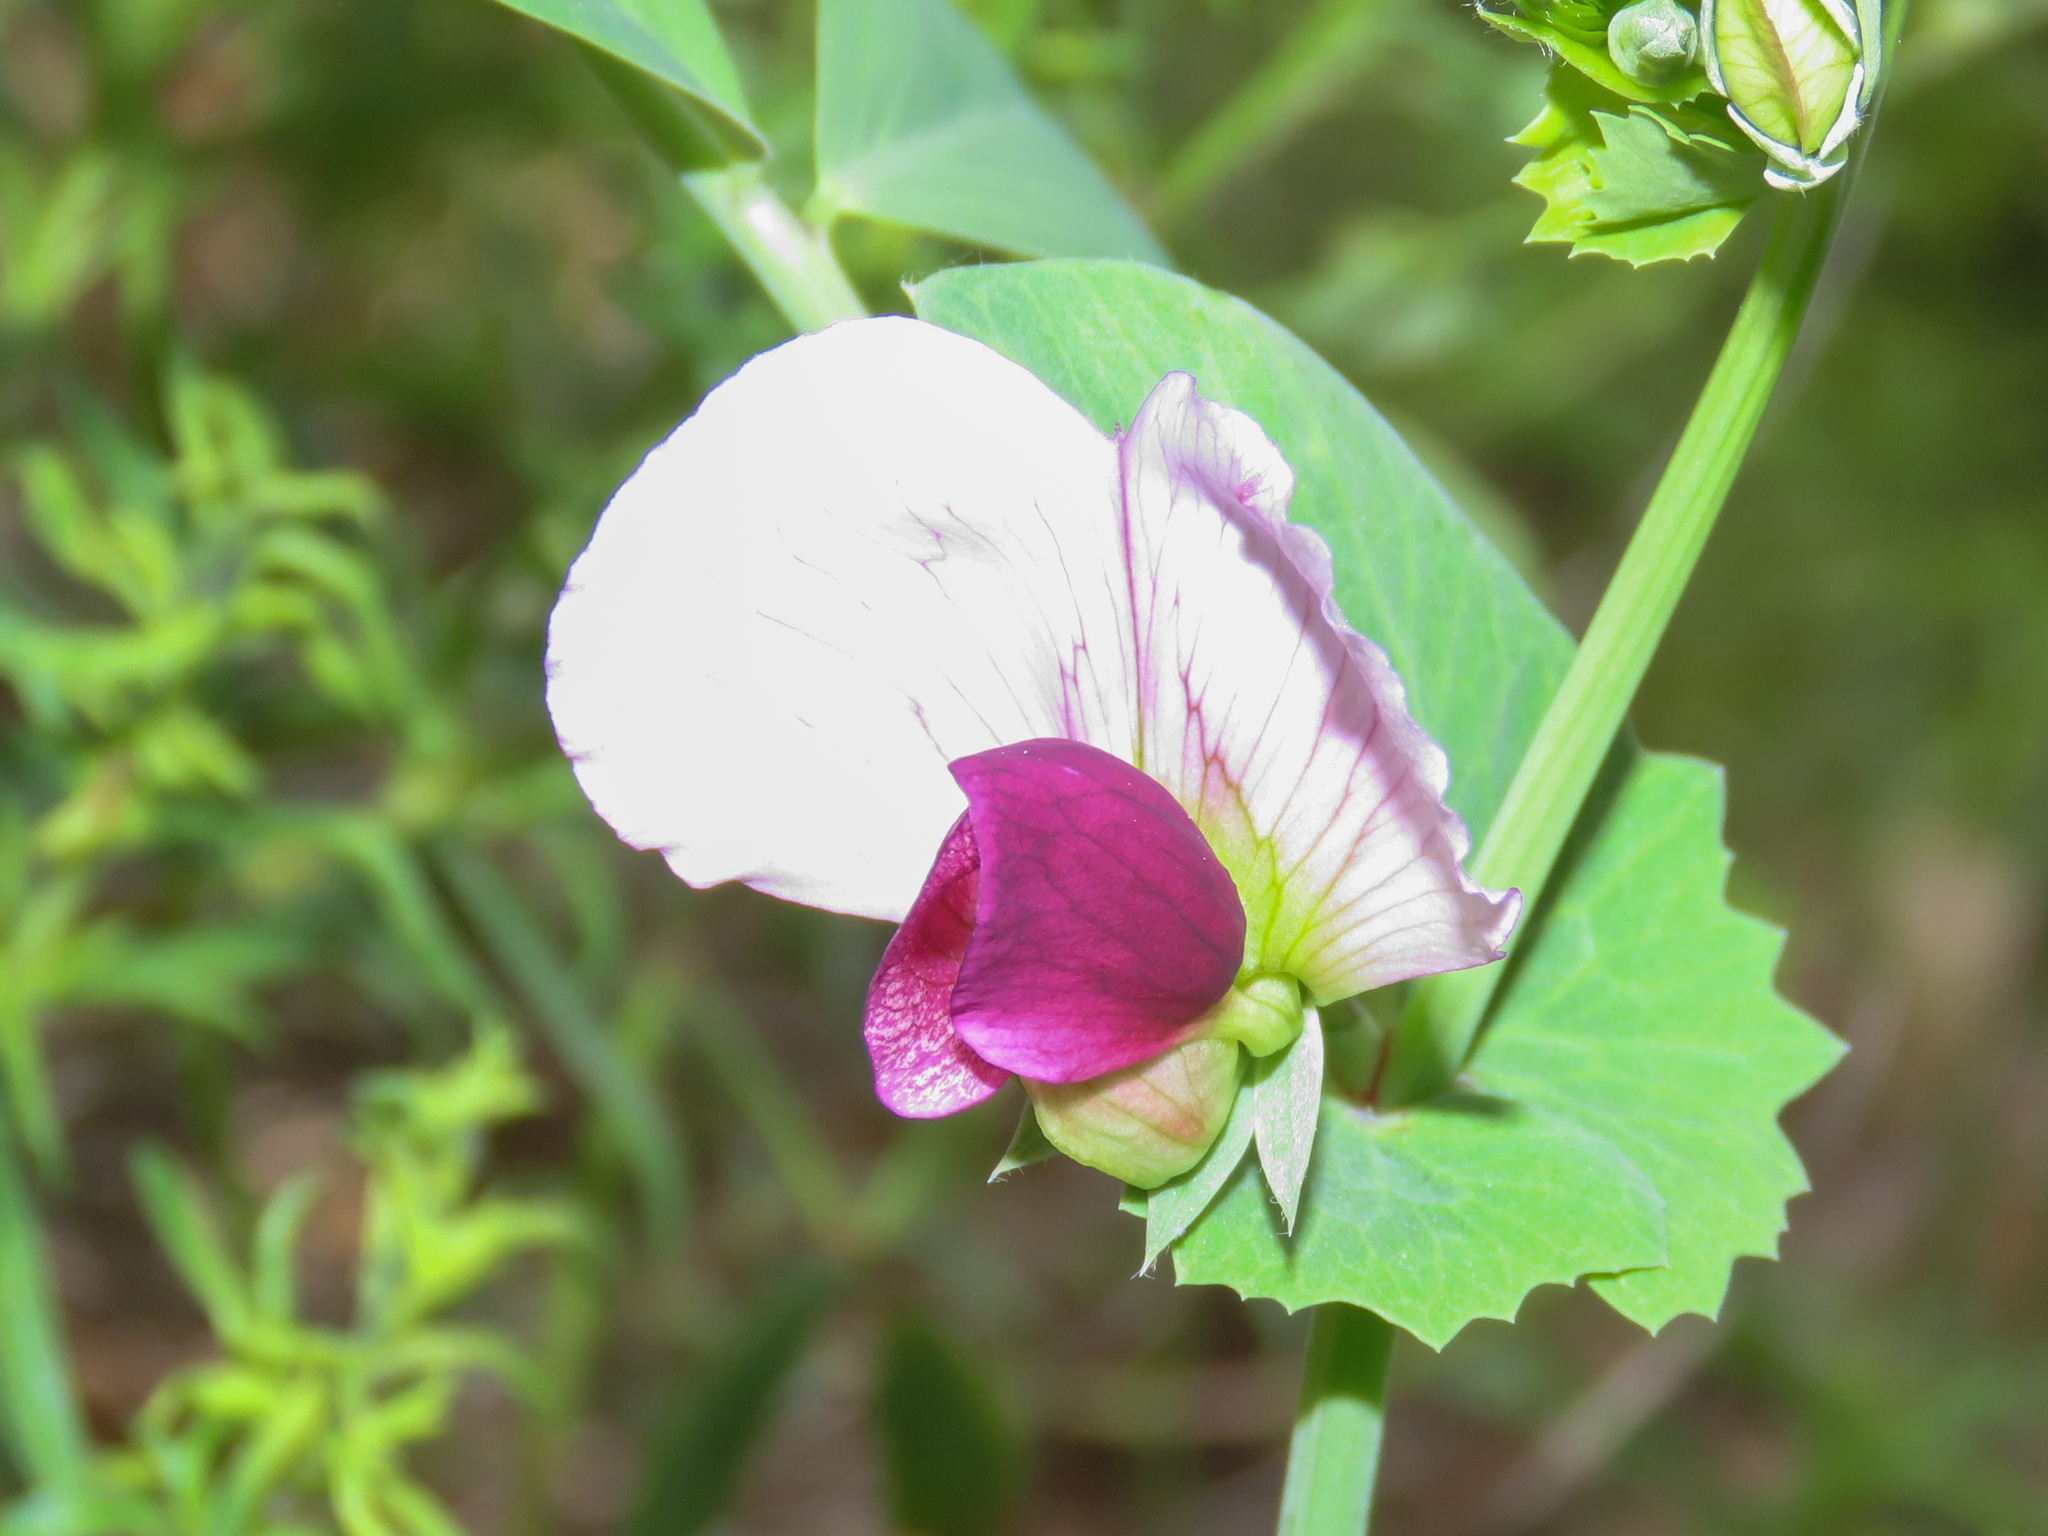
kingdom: Plantae
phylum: Tracheophyta
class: Magnoliopsida
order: Fabales
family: Fabaceae
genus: Lathyrus
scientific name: Lathyrus oleraceus
